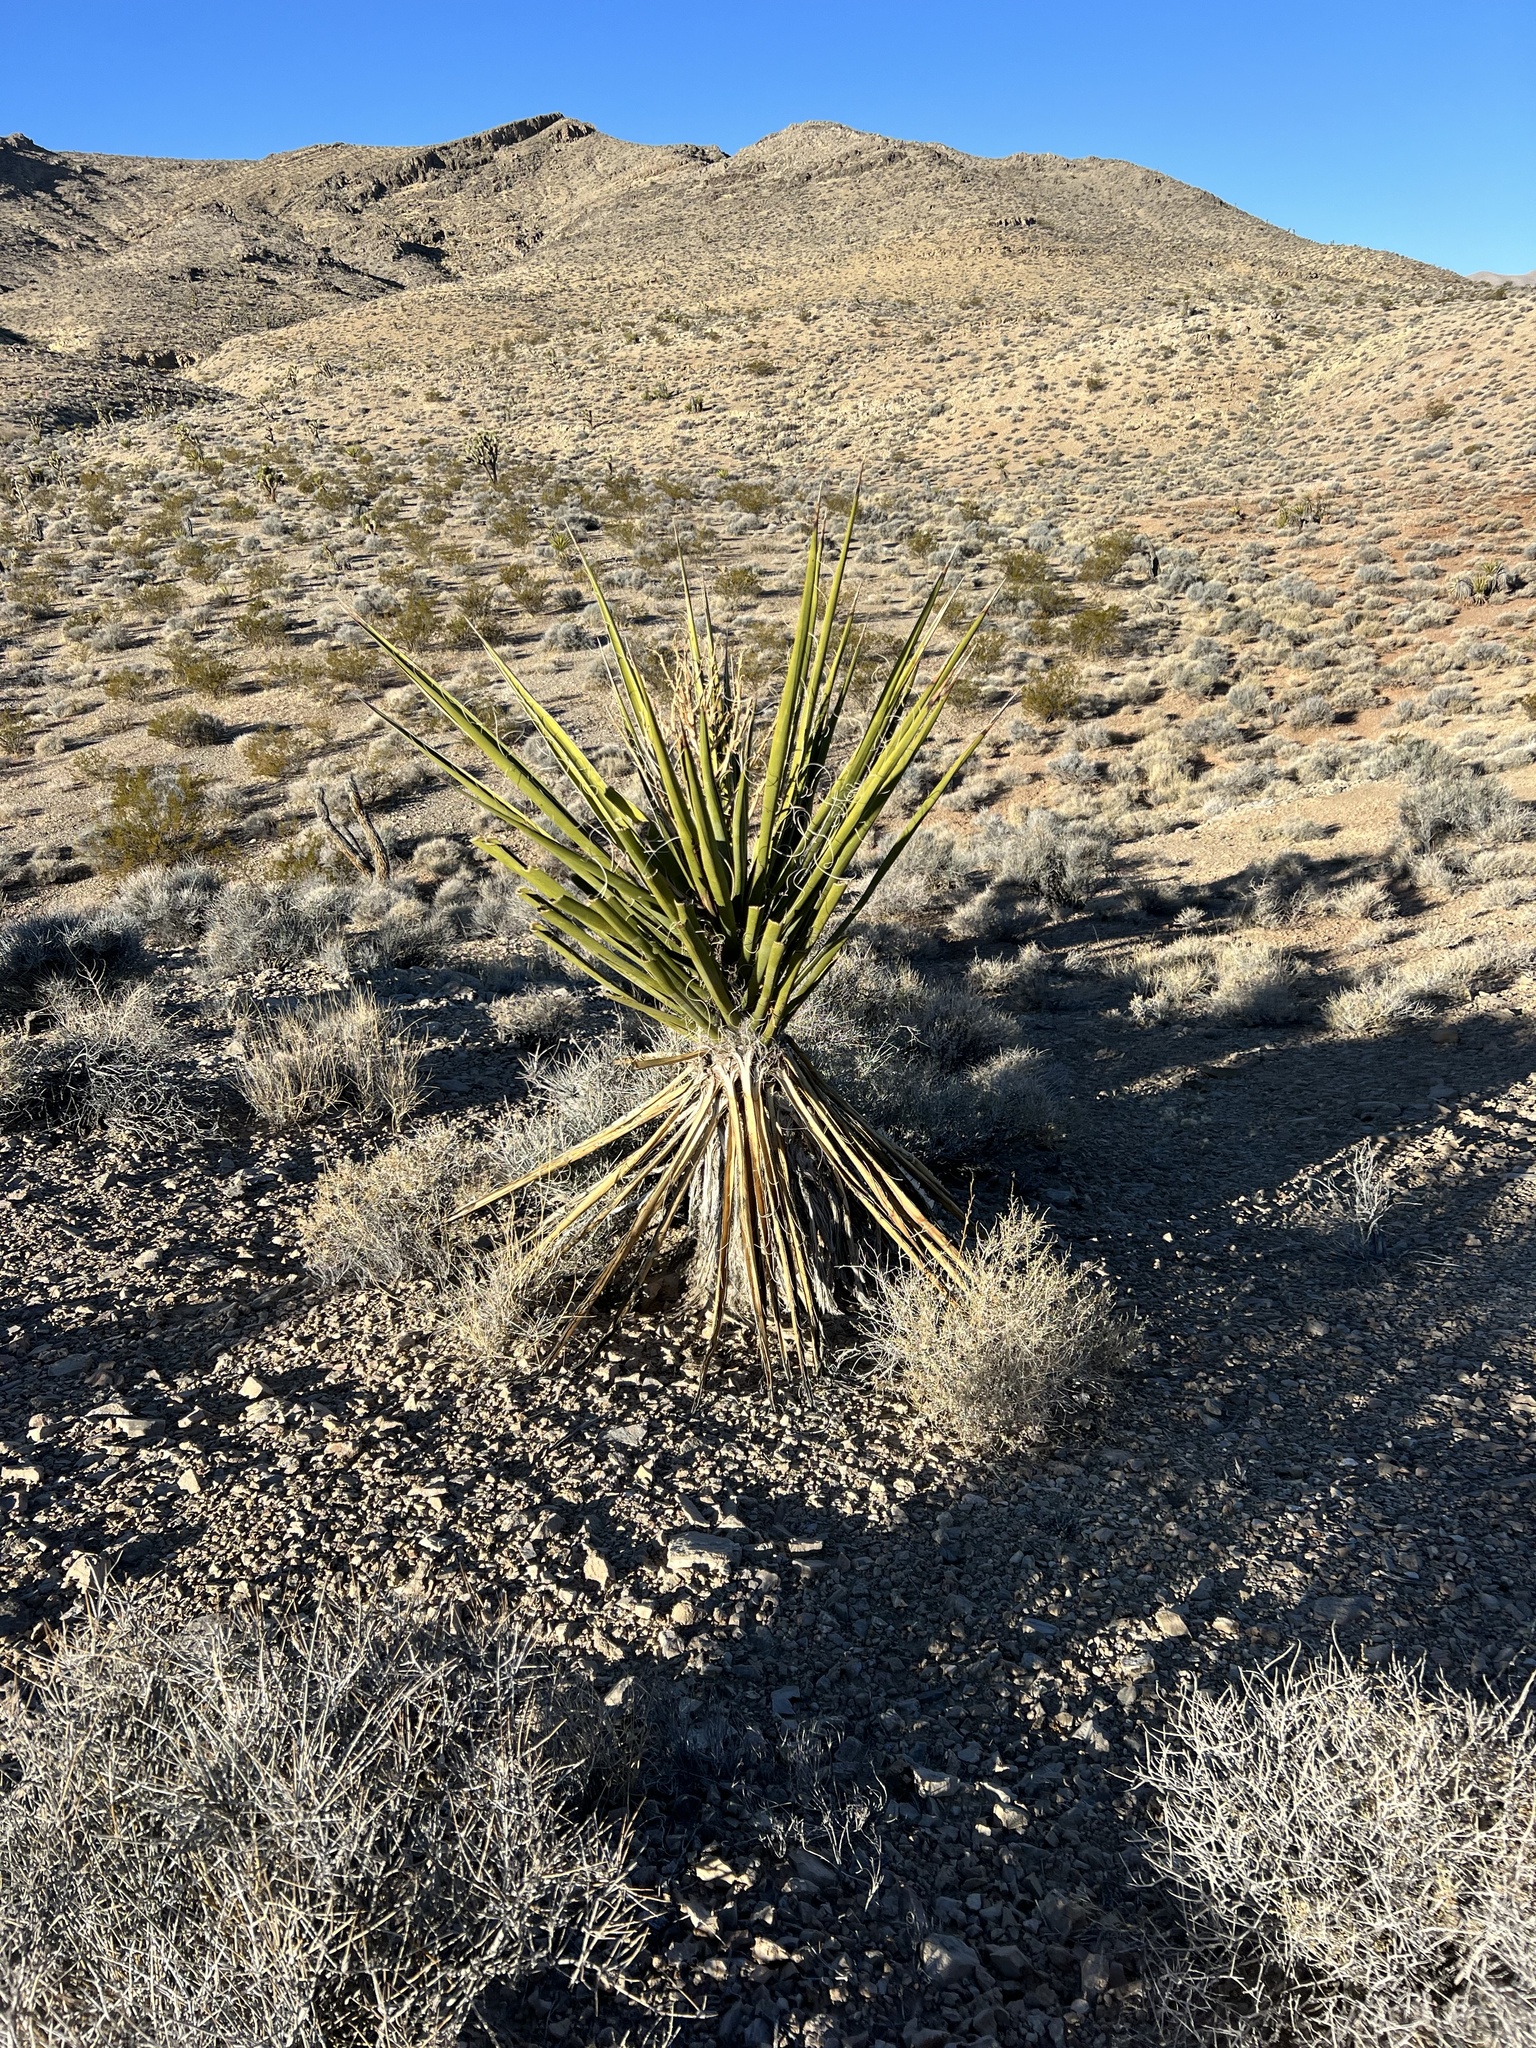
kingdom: Plantae
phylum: Tracheophyta
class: Liliopsida
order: Asparagales
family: Asparagaceae
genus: Yucca
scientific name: Yucca schidigera
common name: Mojave yucca
